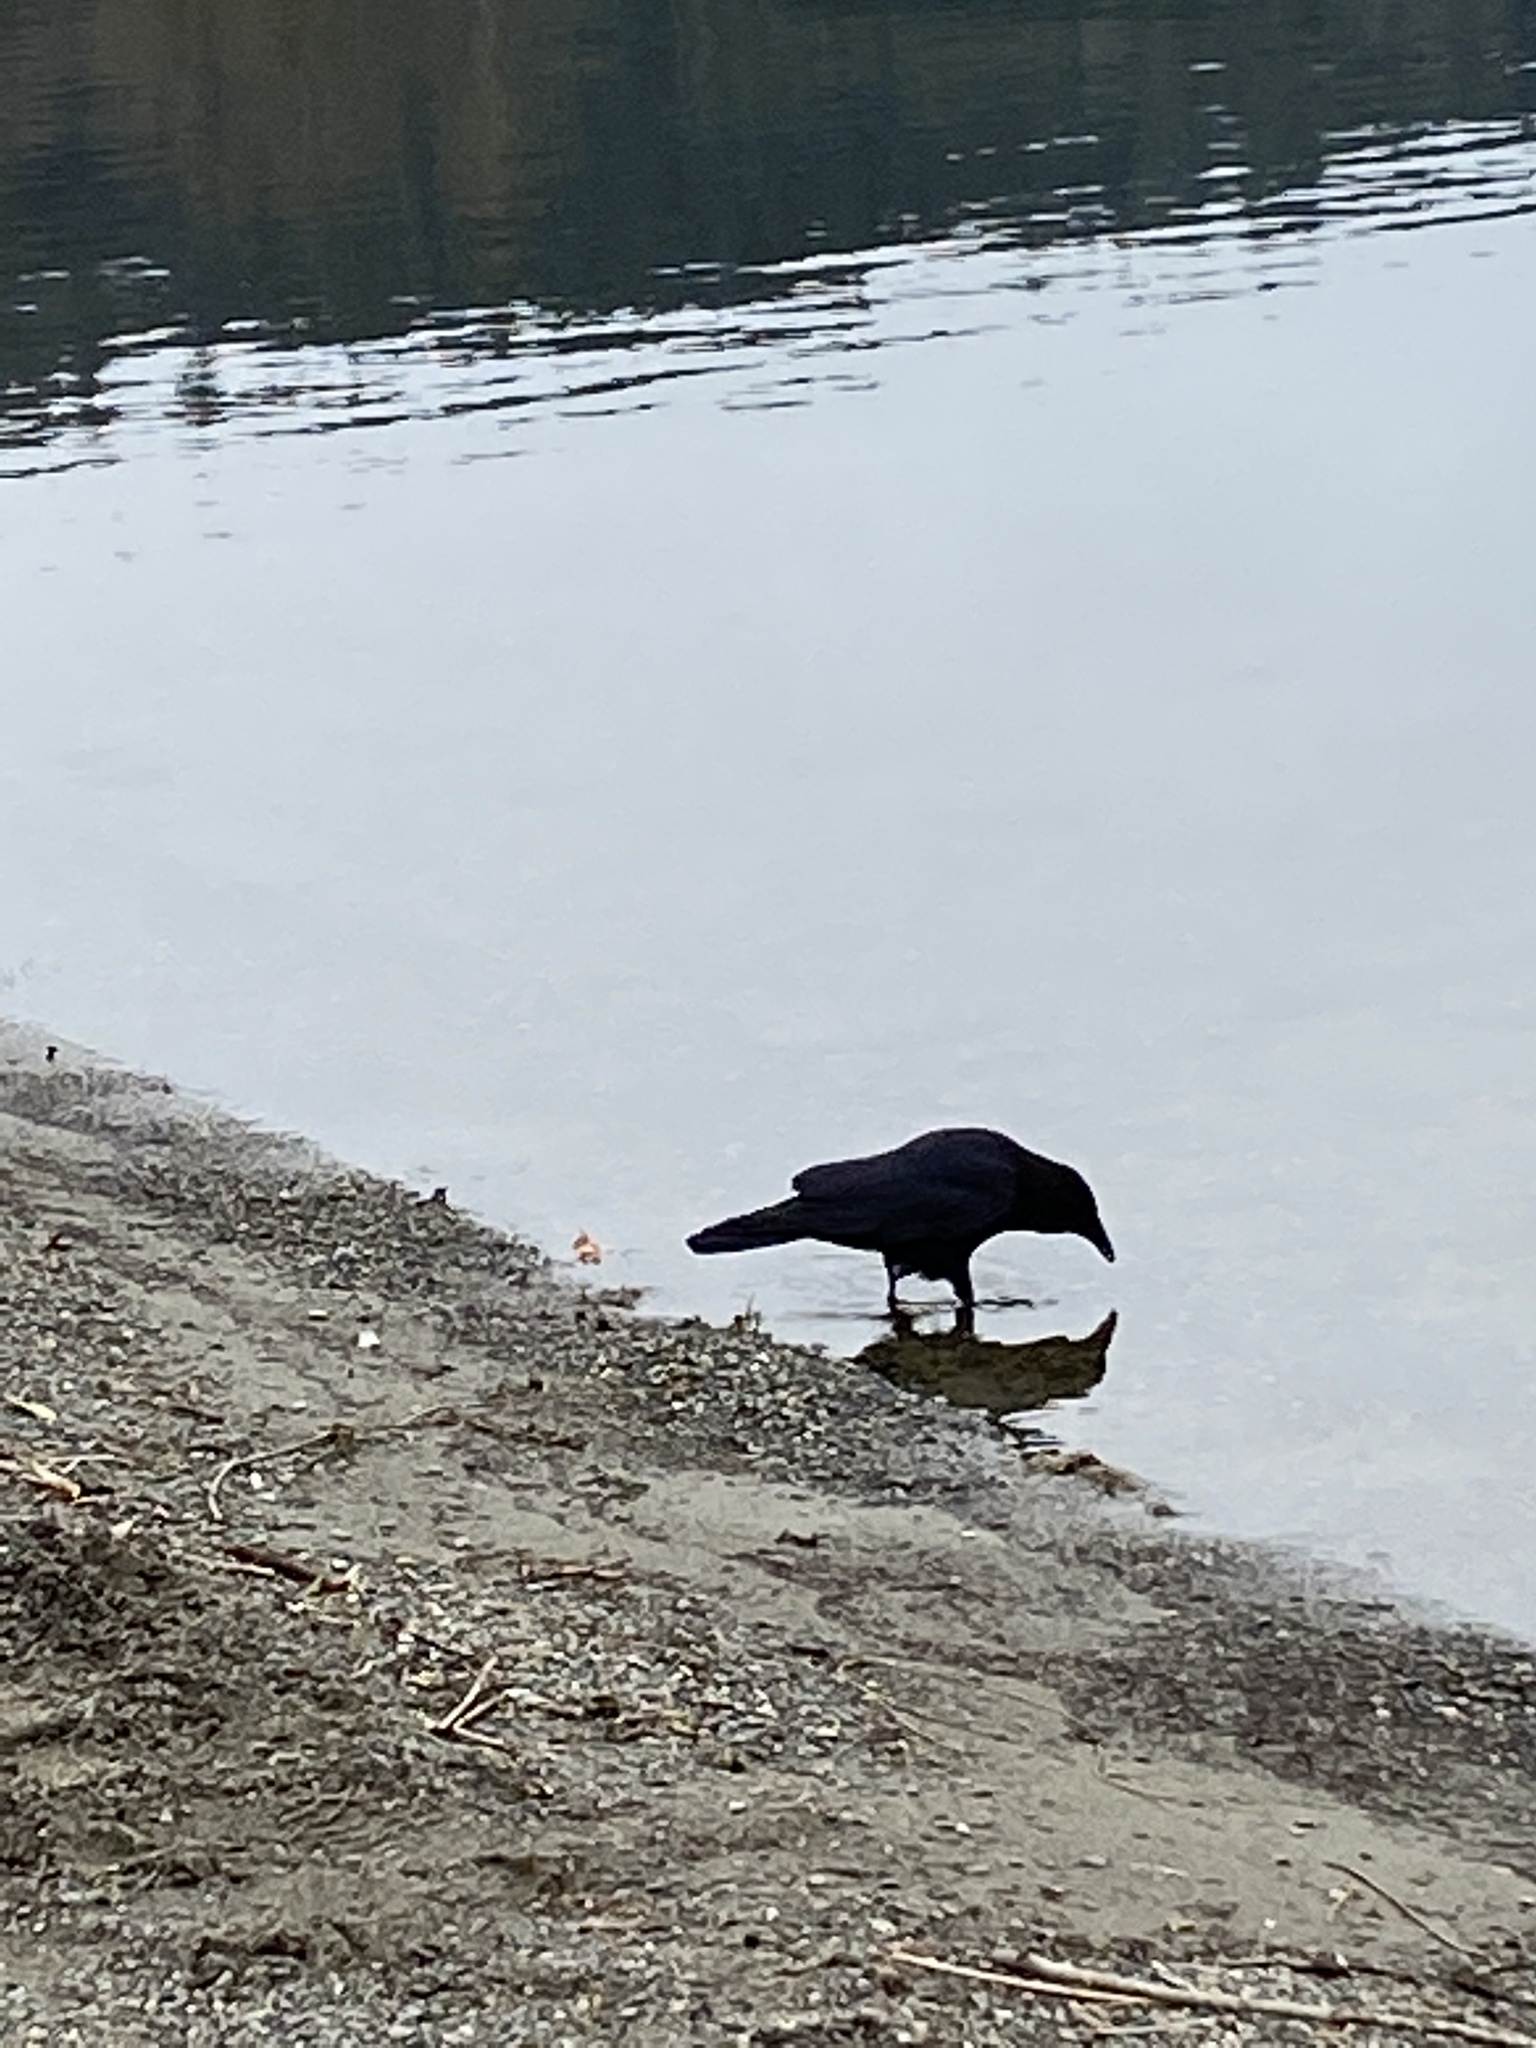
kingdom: Animalia
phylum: Chordata
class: Aves
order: Passeriformes
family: Corvidae
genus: Corvus
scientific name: Corvus brachyrhynchos
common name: American crow
